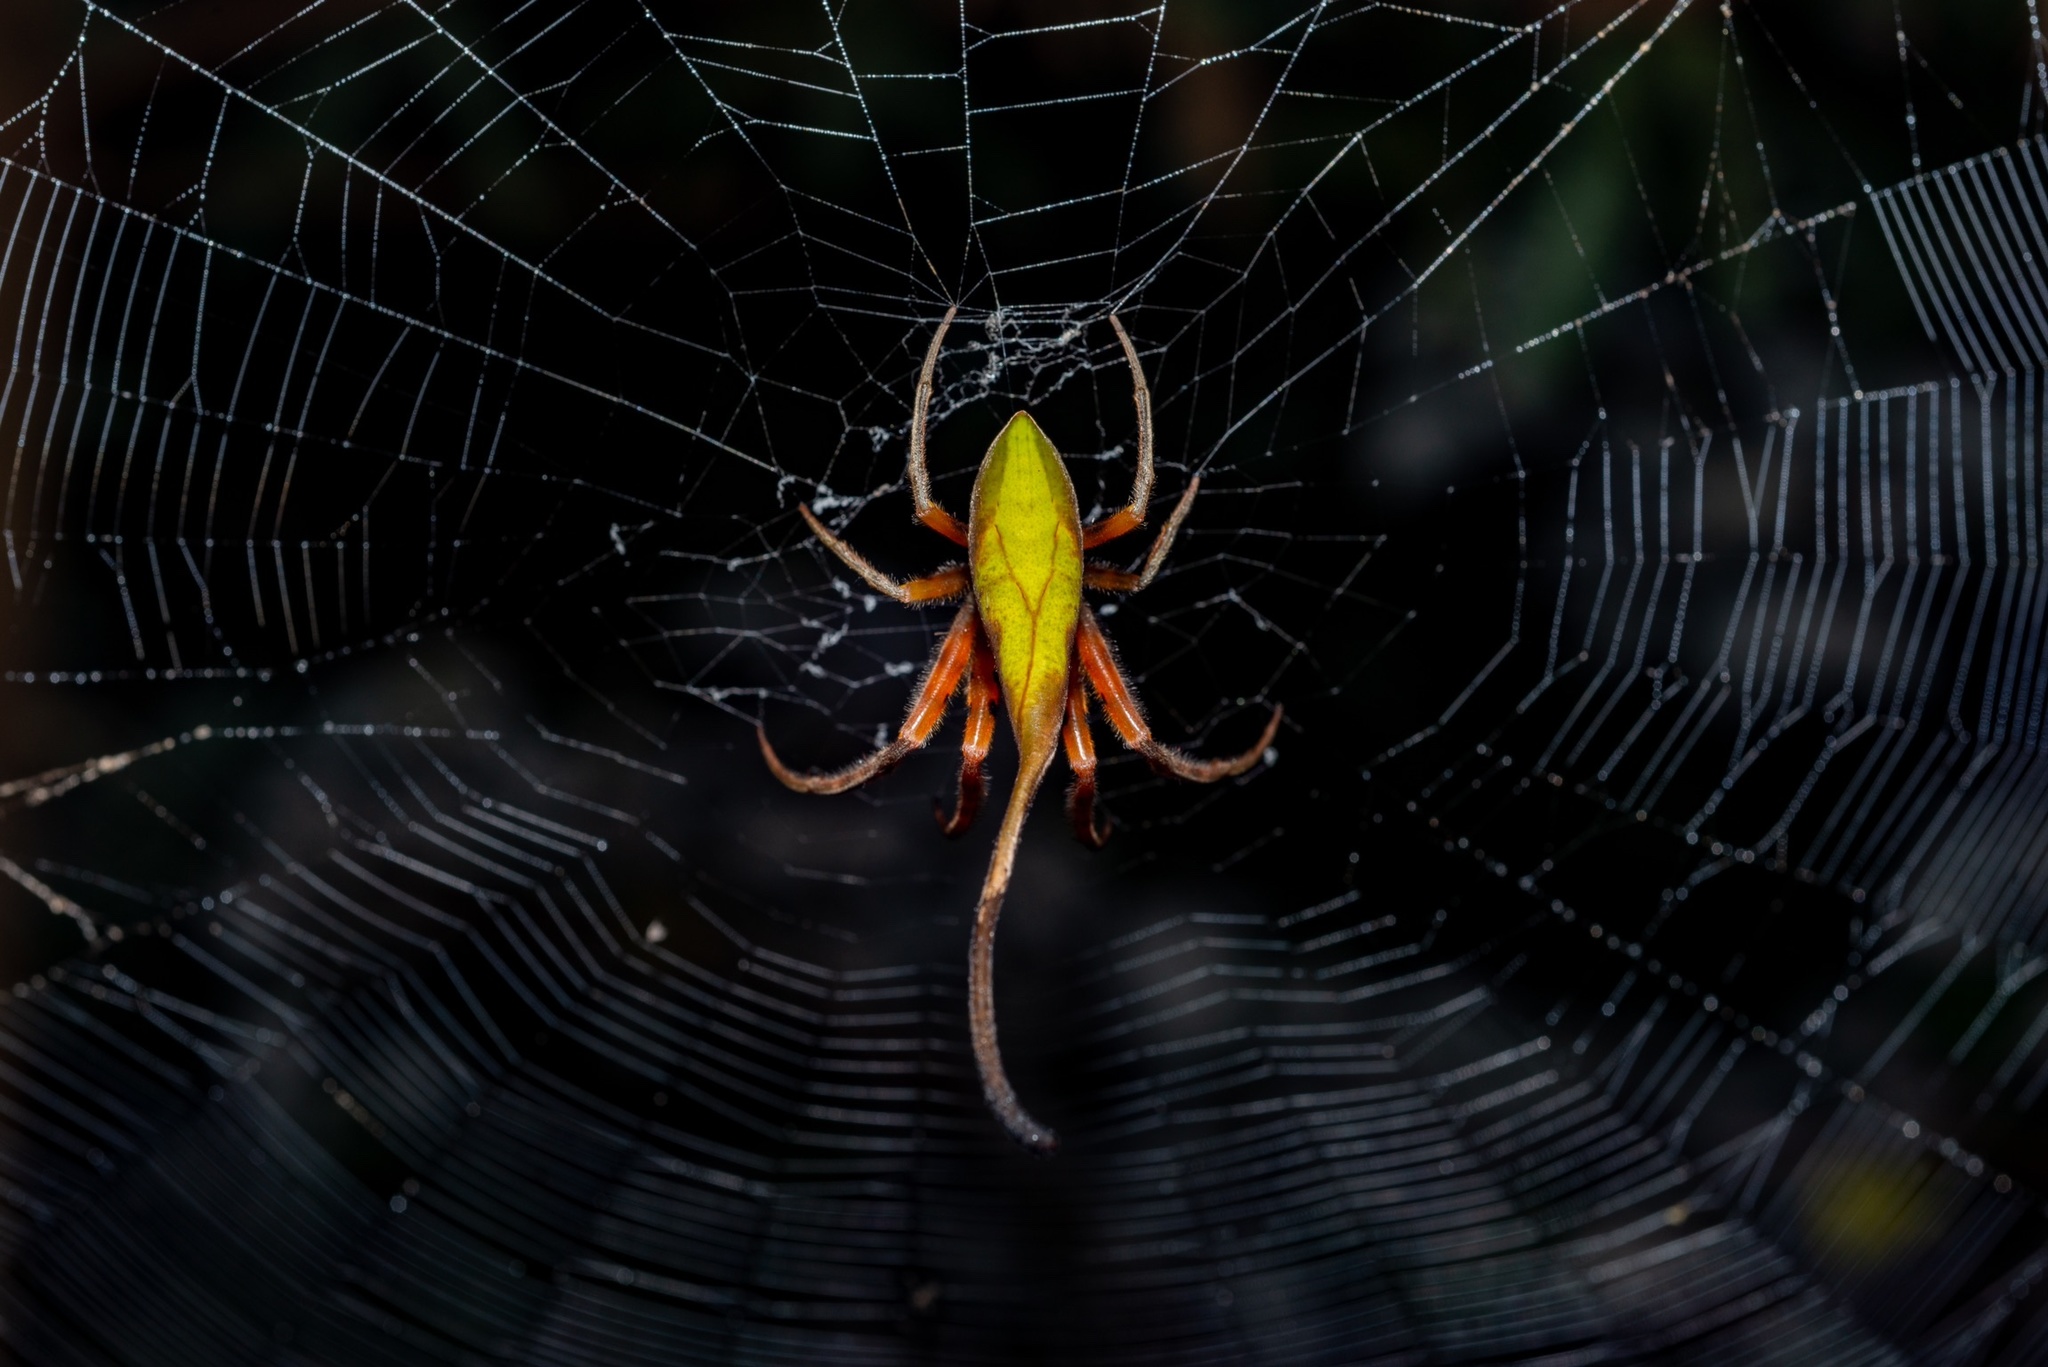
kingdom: Animalia
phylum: Arthropoda
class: Arachnida
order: Araneae
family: Araneidae
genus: Poltys
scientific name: Poltys idae
